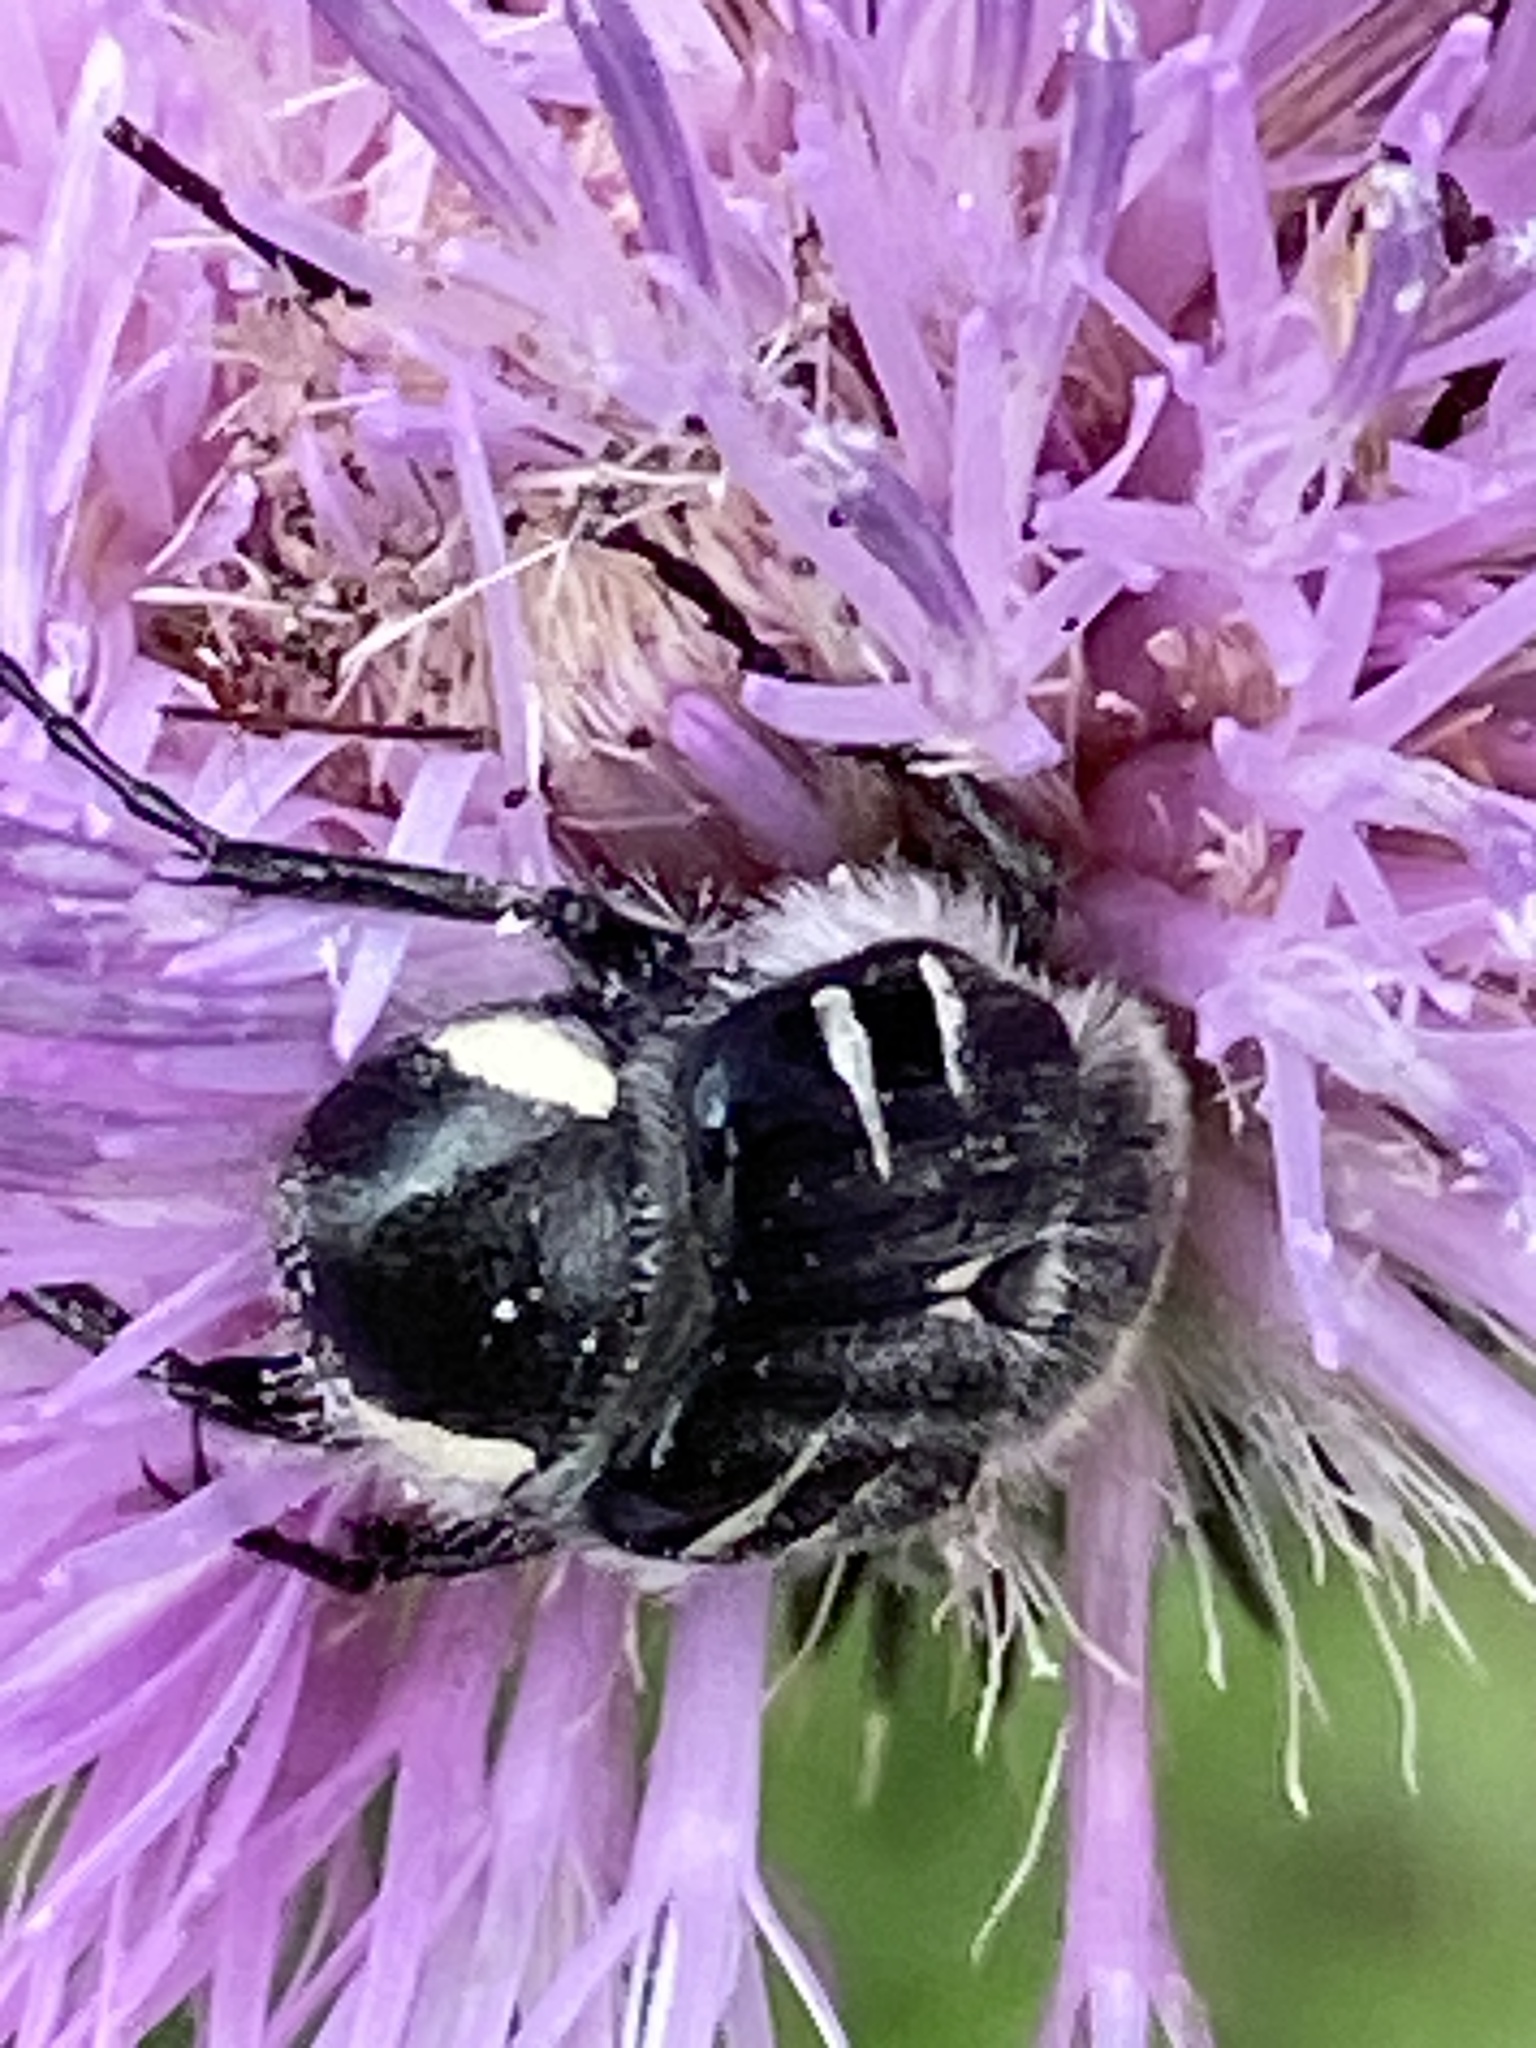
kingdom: Animalia
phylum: Arthropoda
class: Insecta
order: Coleoptera
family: Scarabaeidae
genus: Trichiotinus
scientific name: Trichiotinus texanus
